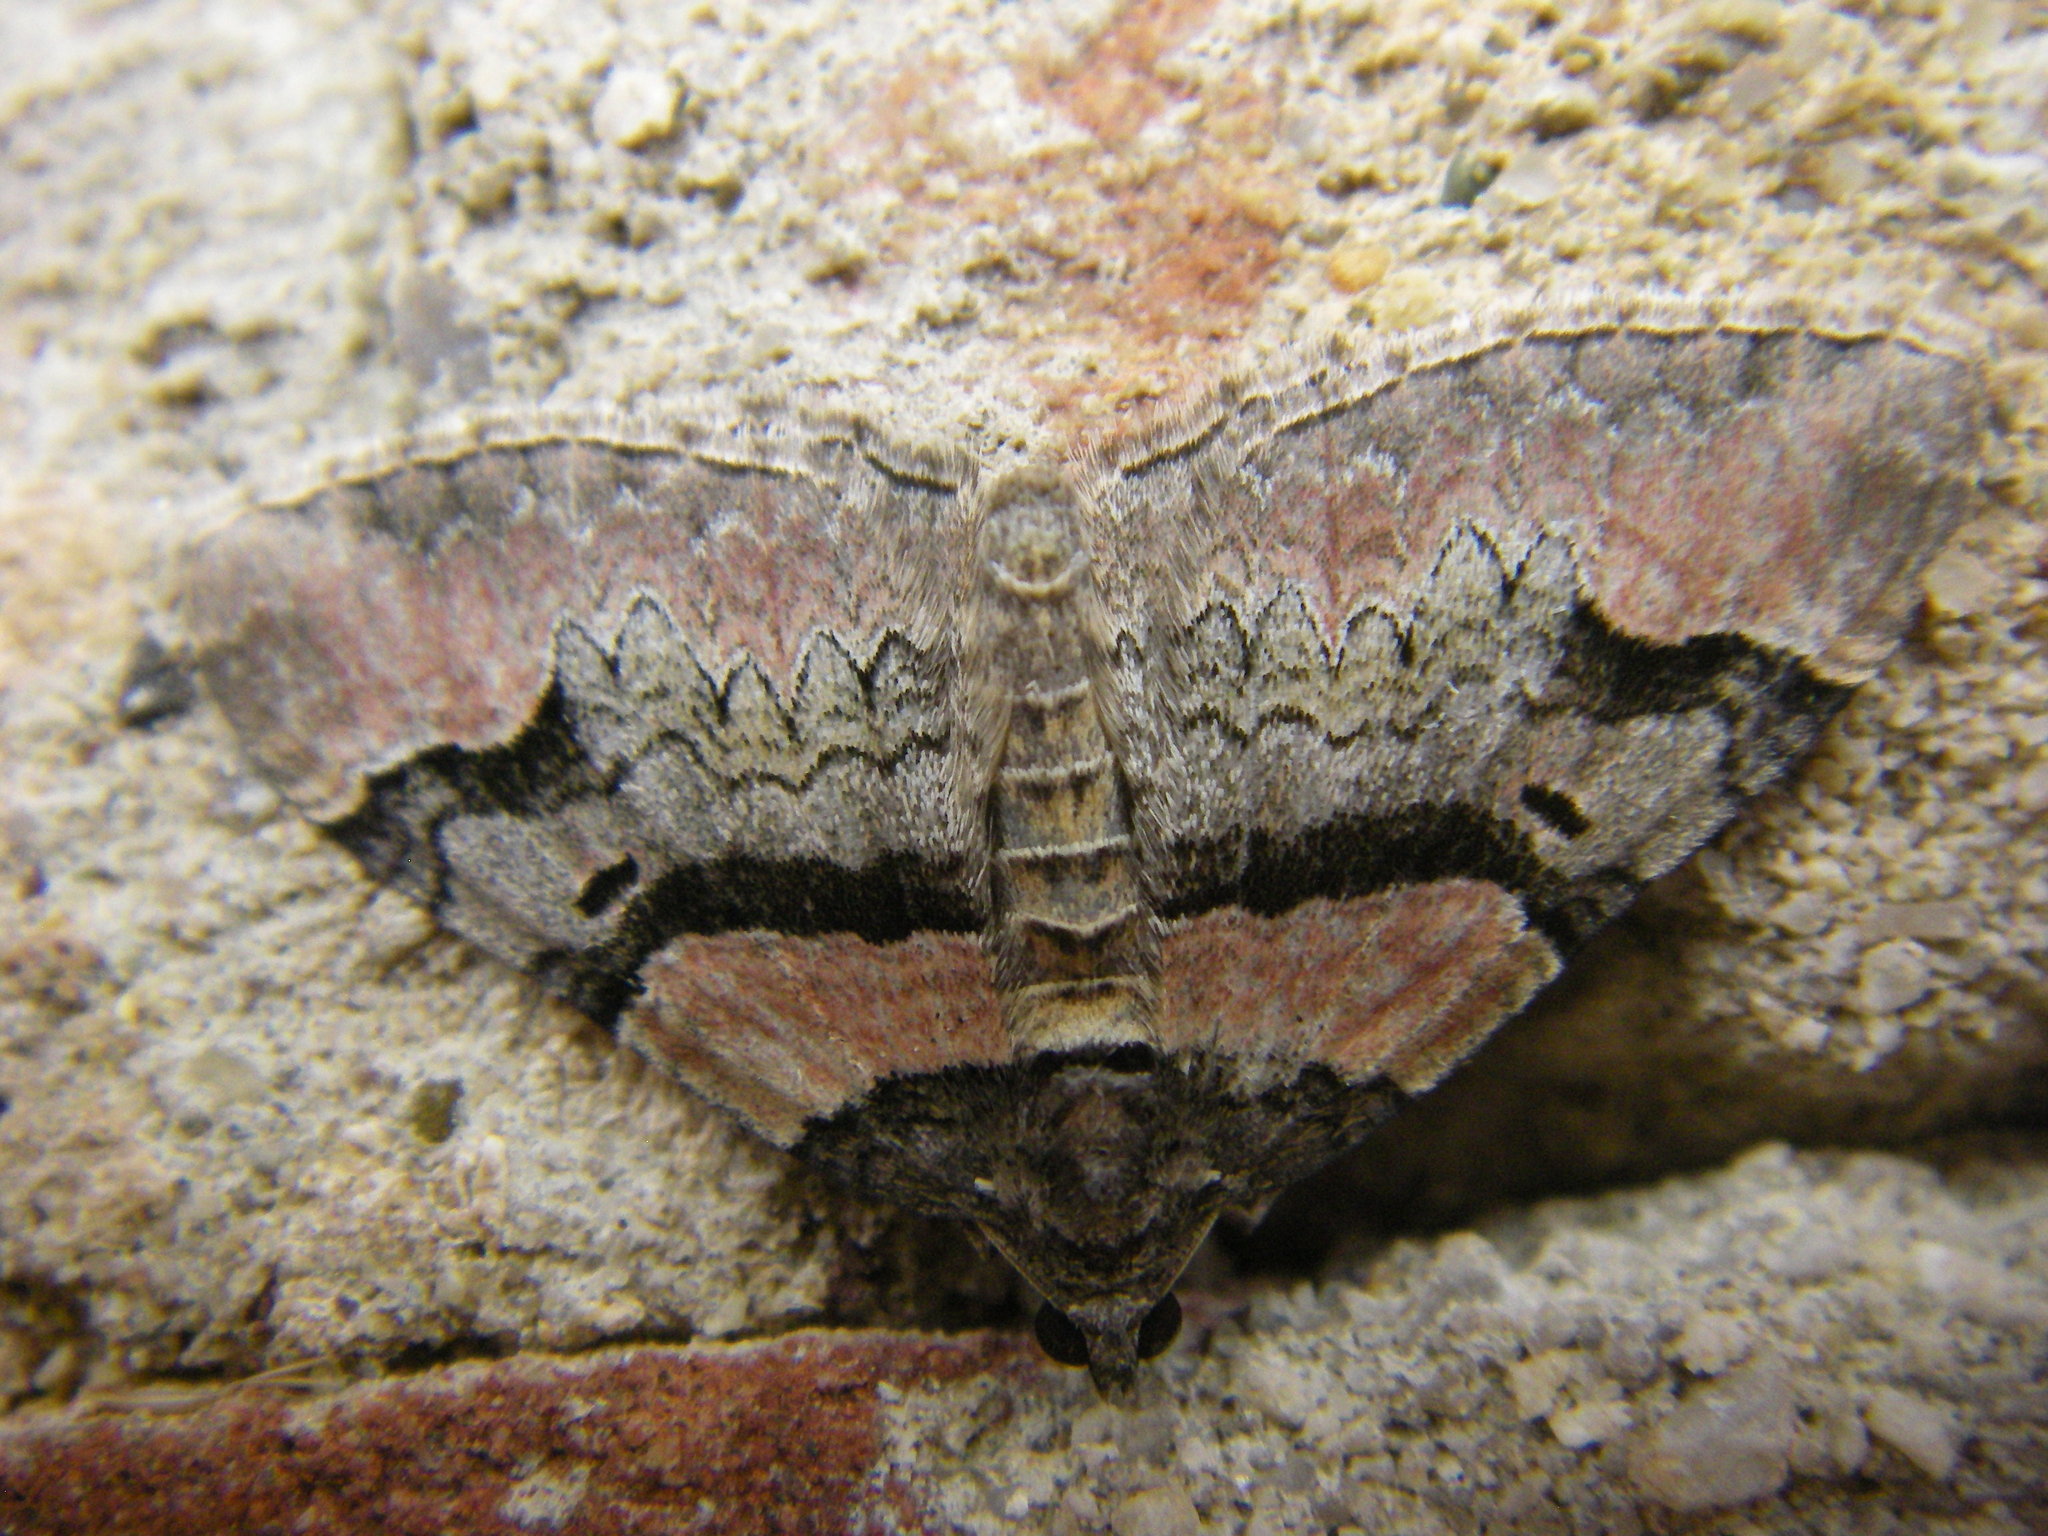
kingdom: Animalia
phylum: Arthropoda
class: Insecta
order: Lepidoptera
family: Geometridae
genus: Catarhoe
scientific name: Catarhoe rubidata
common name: Ruddy carpet
